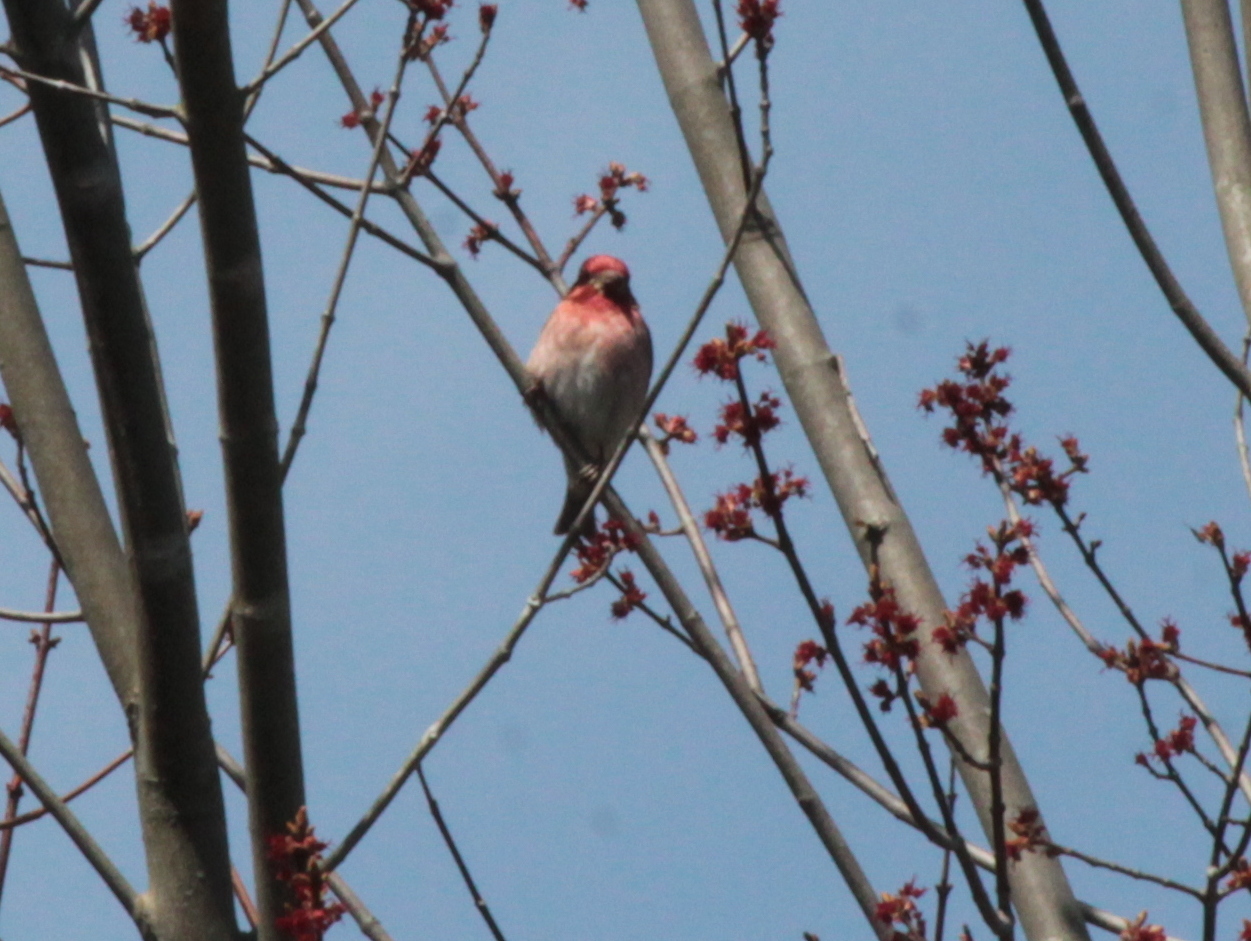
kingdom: Animalia
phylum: Chordata
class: Aves
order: Passeriformes
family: Fringillidae
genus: Haemorhous
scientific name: Haemorhous purpureus
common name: Purple finch
